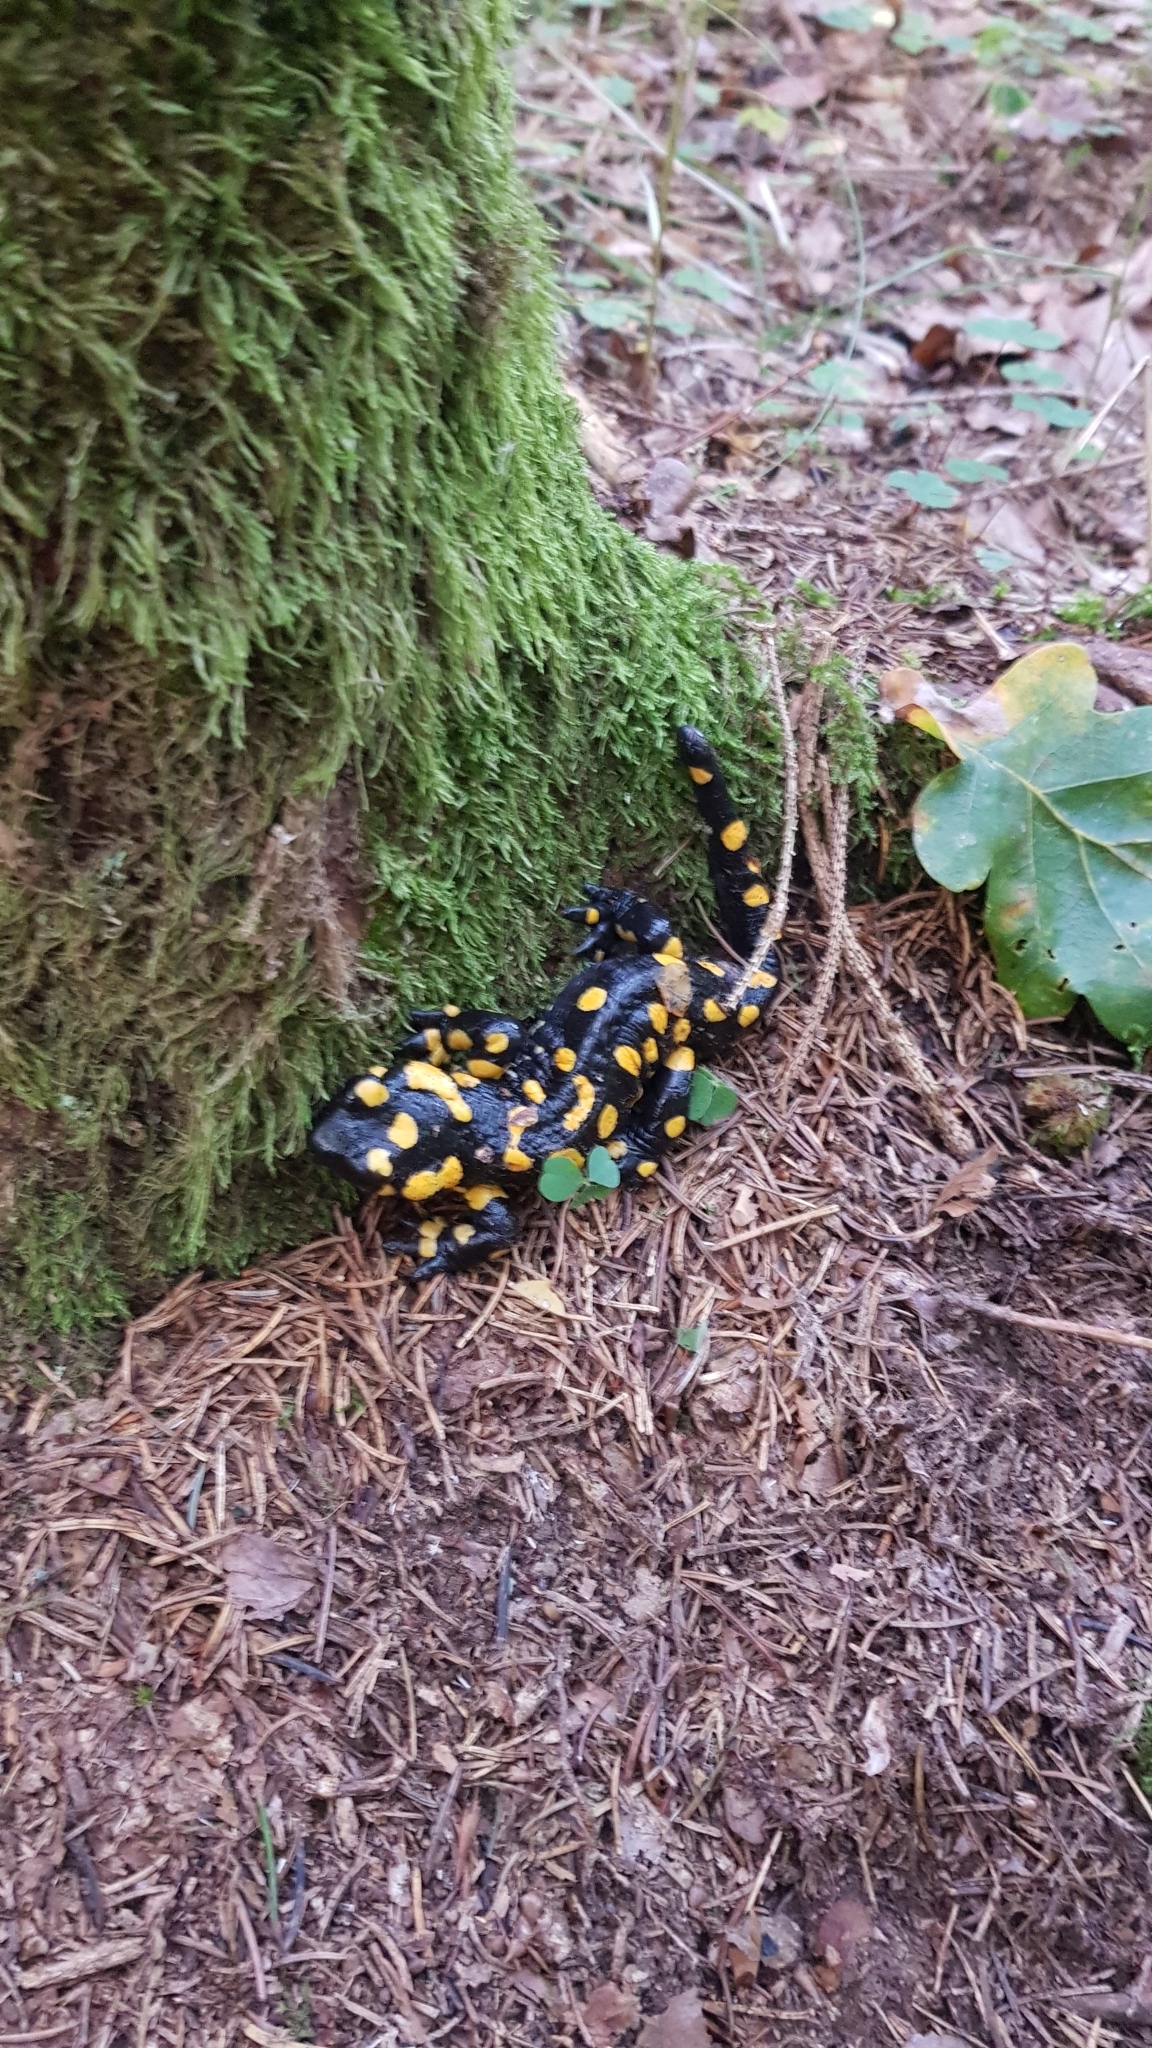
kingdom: Animalia
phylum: Chordata
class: Amphibia
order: Caudata
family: Salamandridae
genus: Salamandra
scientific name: Salamandra salamandra
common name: Fire salamander
